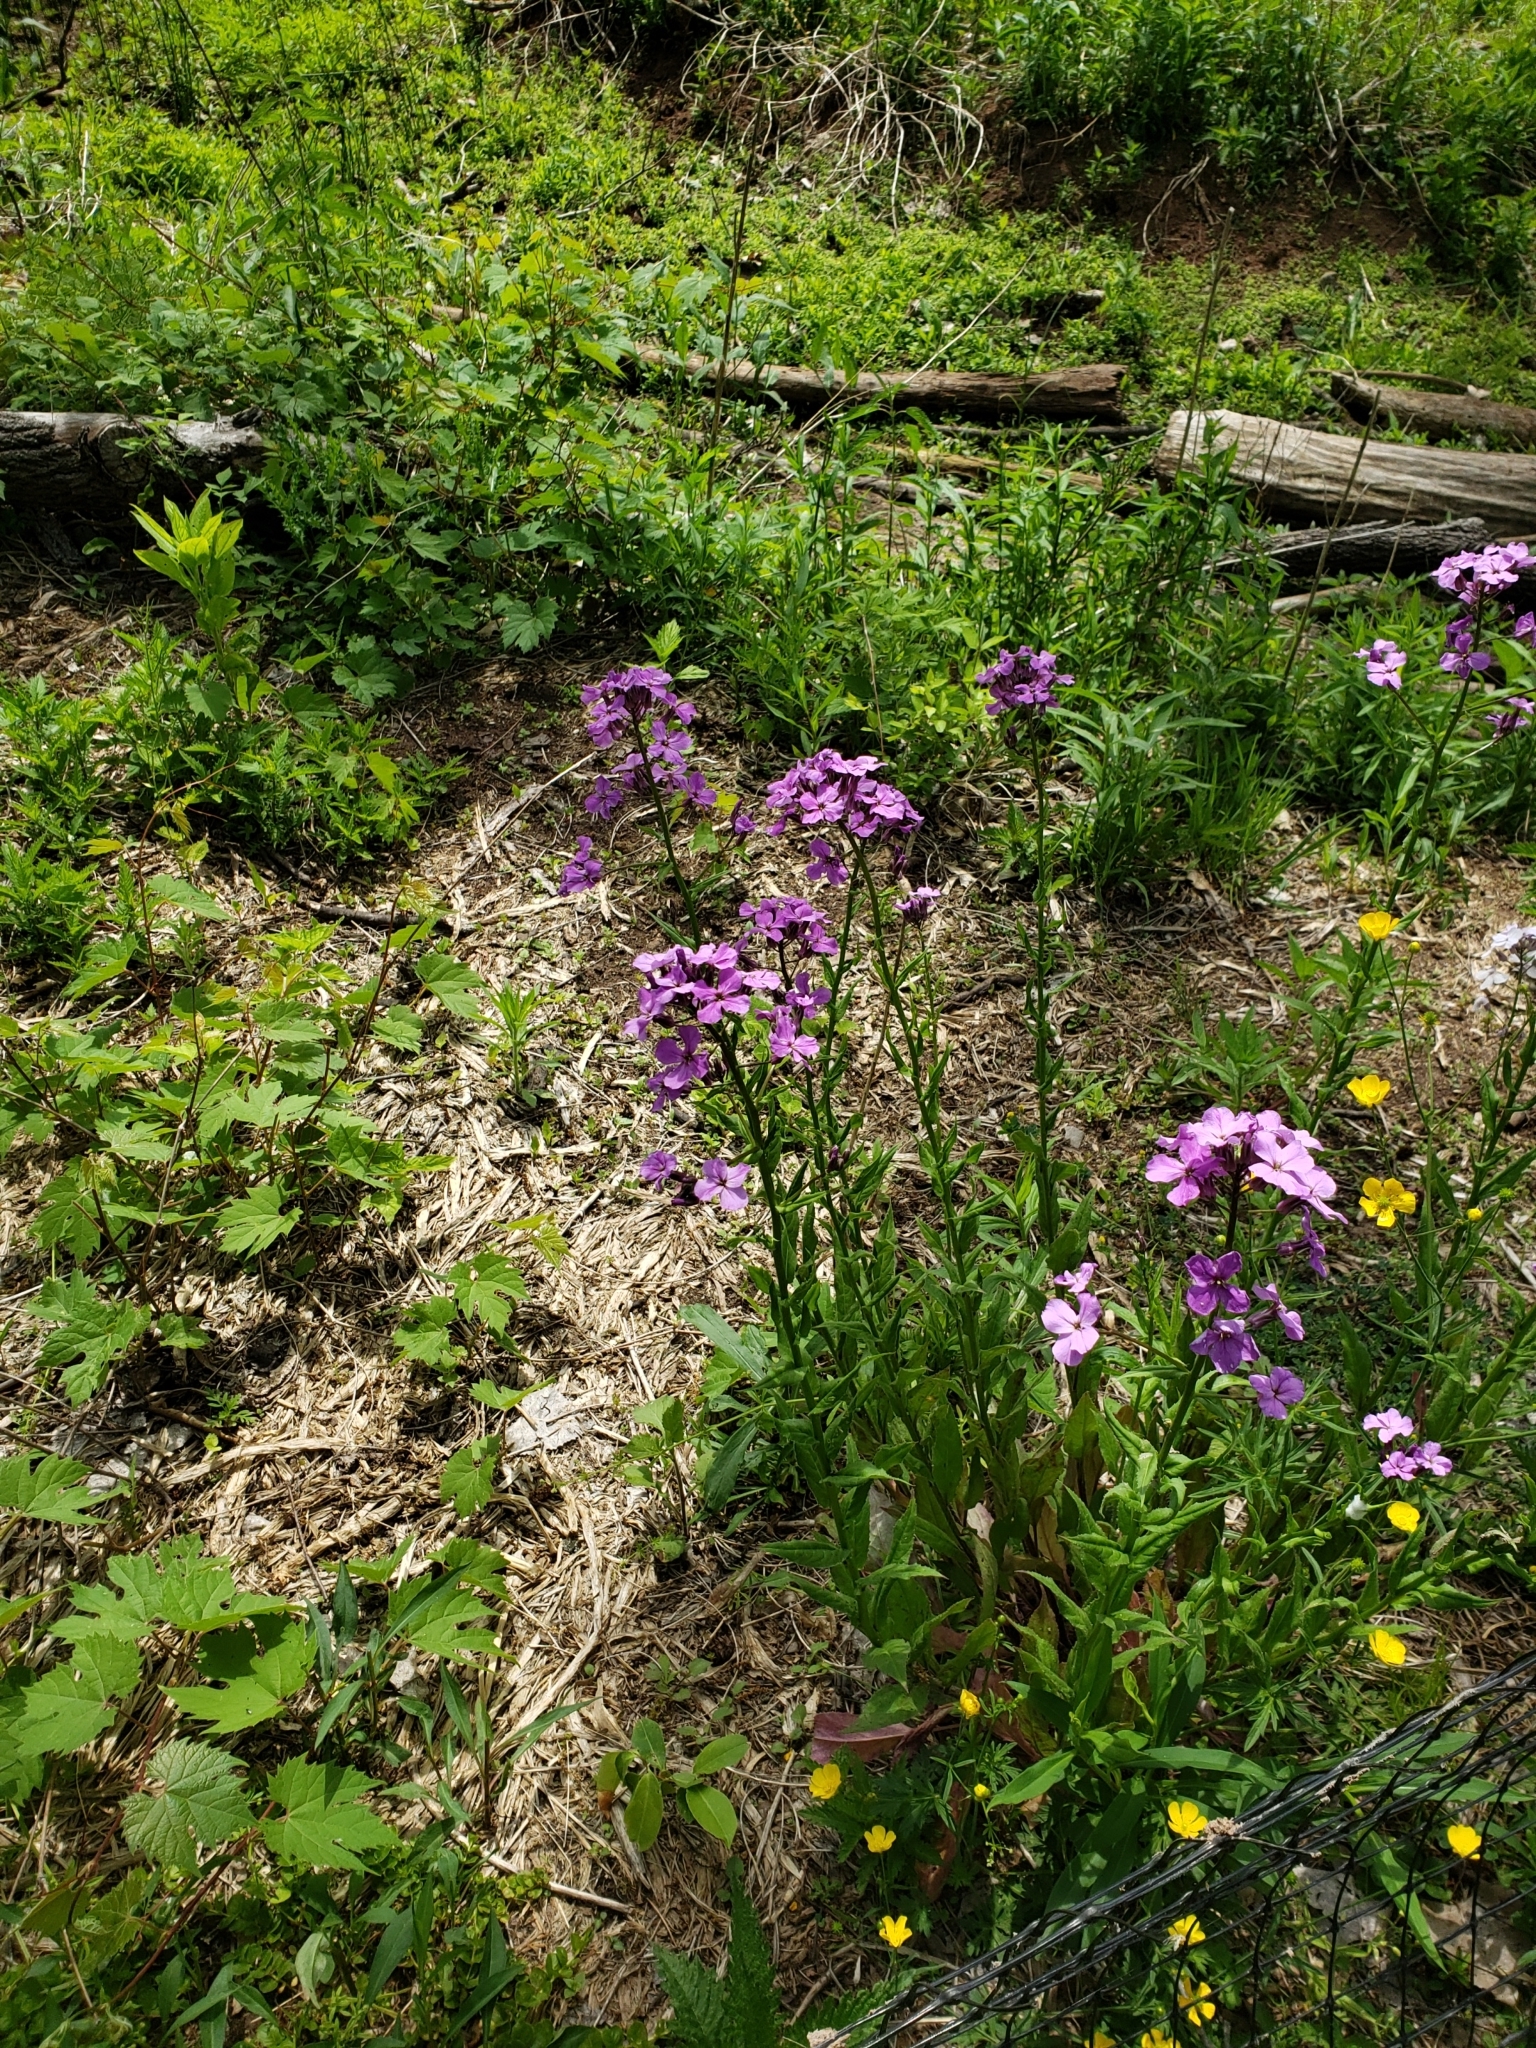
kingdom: Plantae
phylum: Tracheophyta
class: Magnoliopsida
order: Brassicales
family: Brassicaceae
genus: Hesperis
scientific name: Hesperis matronalis
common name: Dame's-violet
